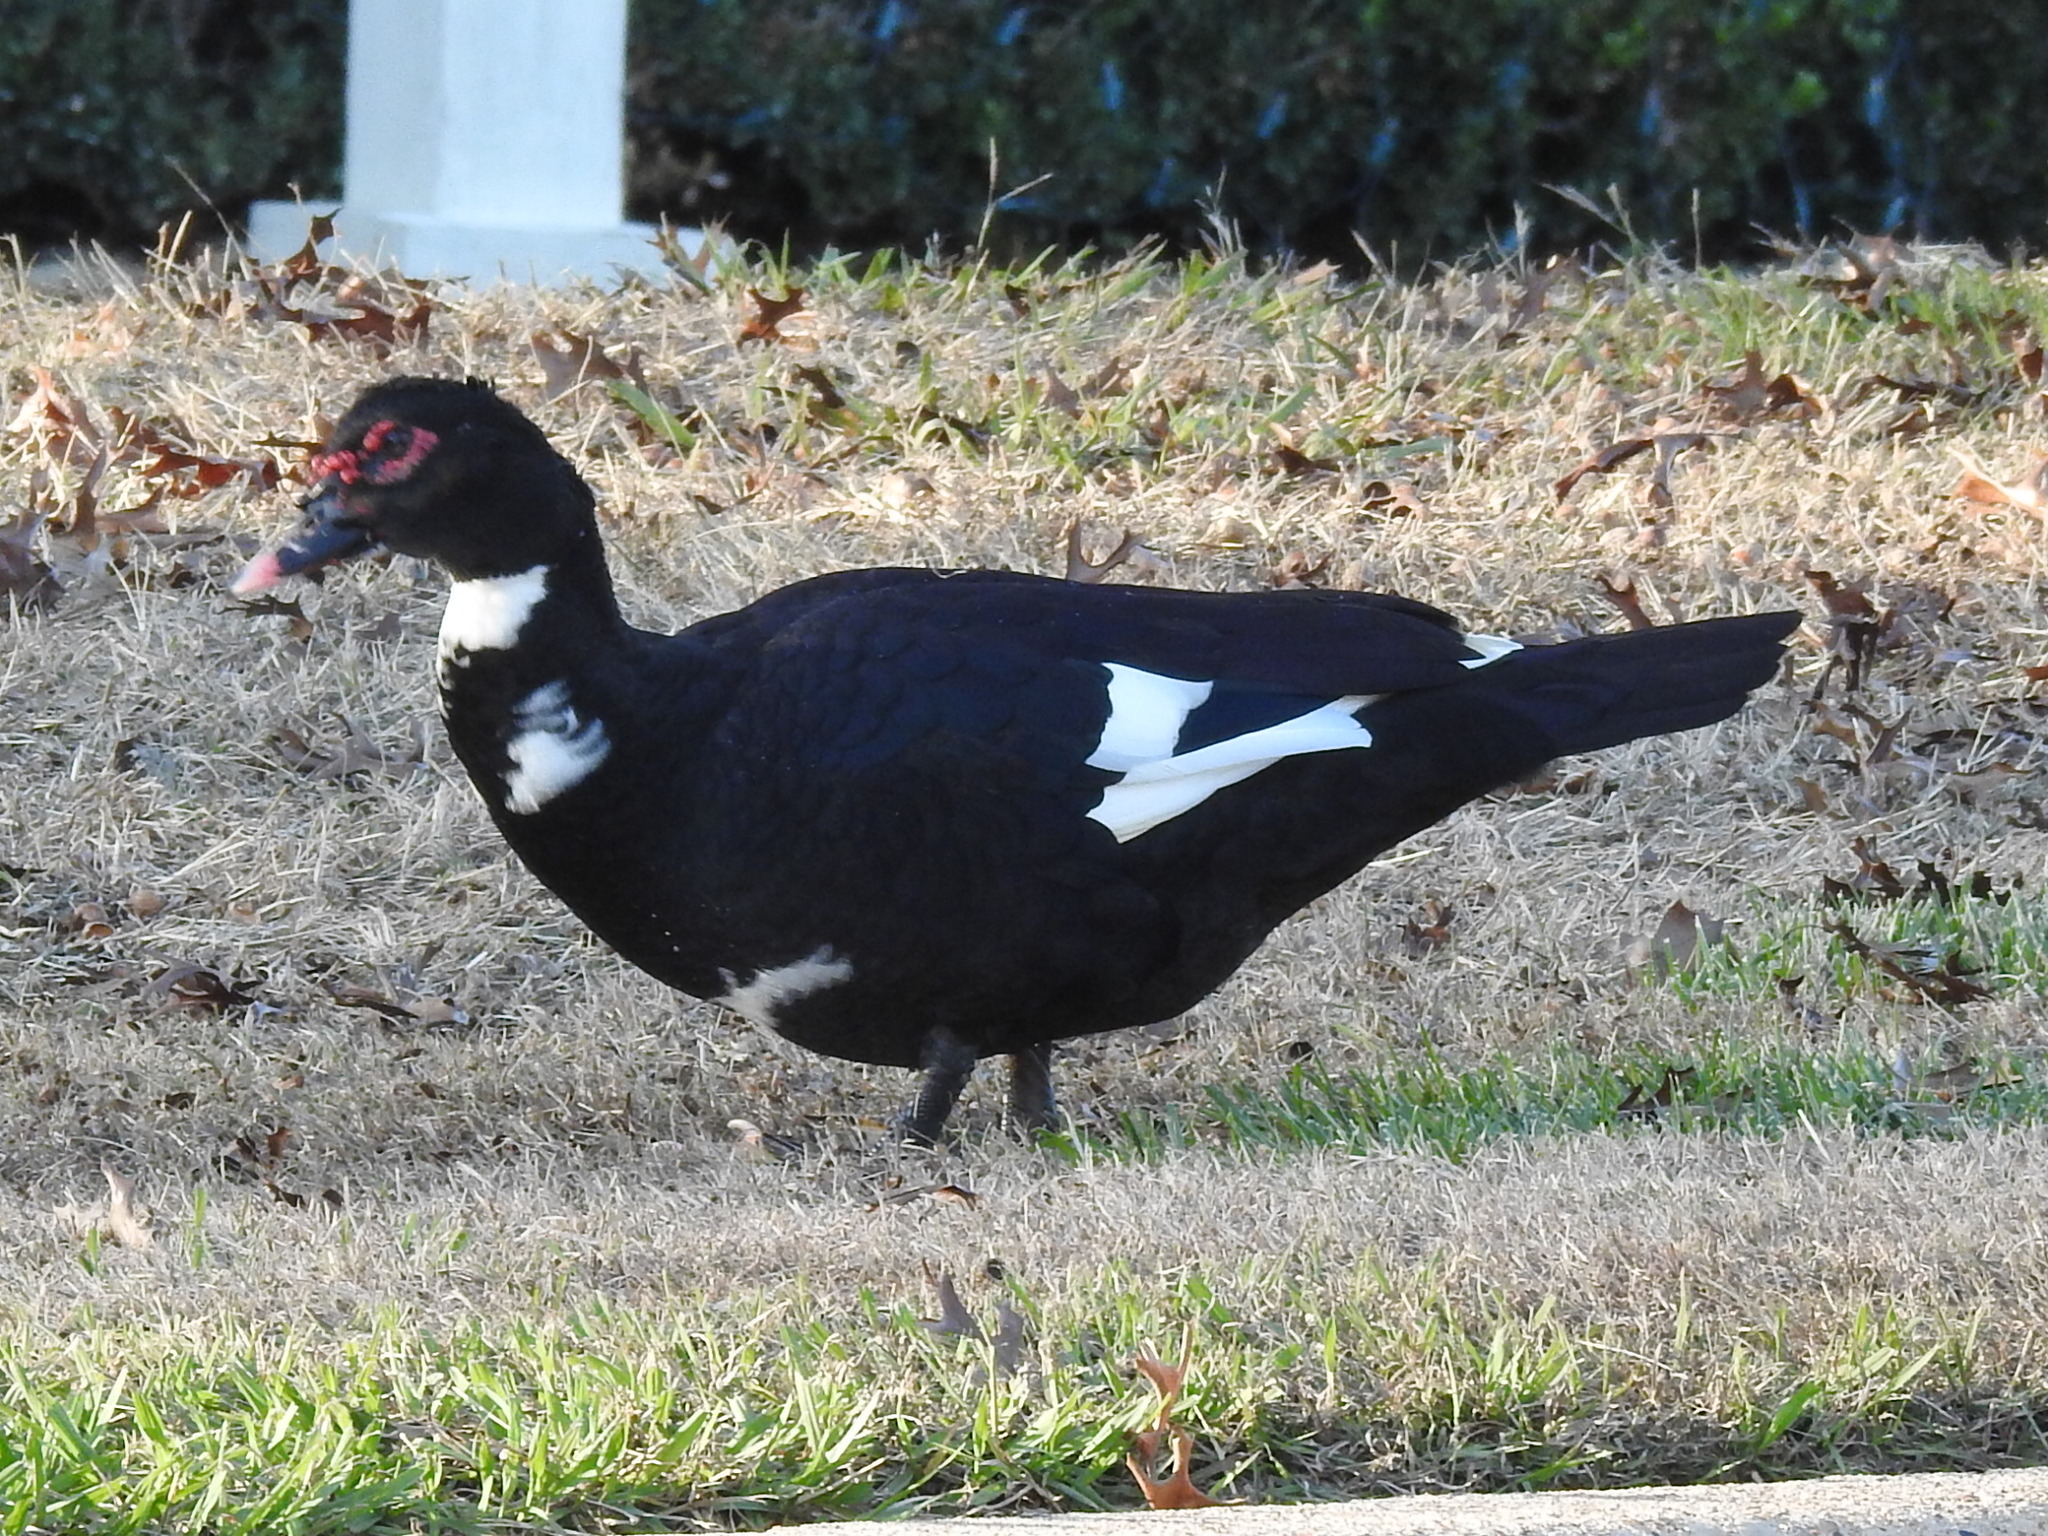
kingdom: Animalia
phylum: Chordata
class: Aves
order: Anseriformes
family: Anatidae
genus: Cairina
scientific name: Cairina moschata
